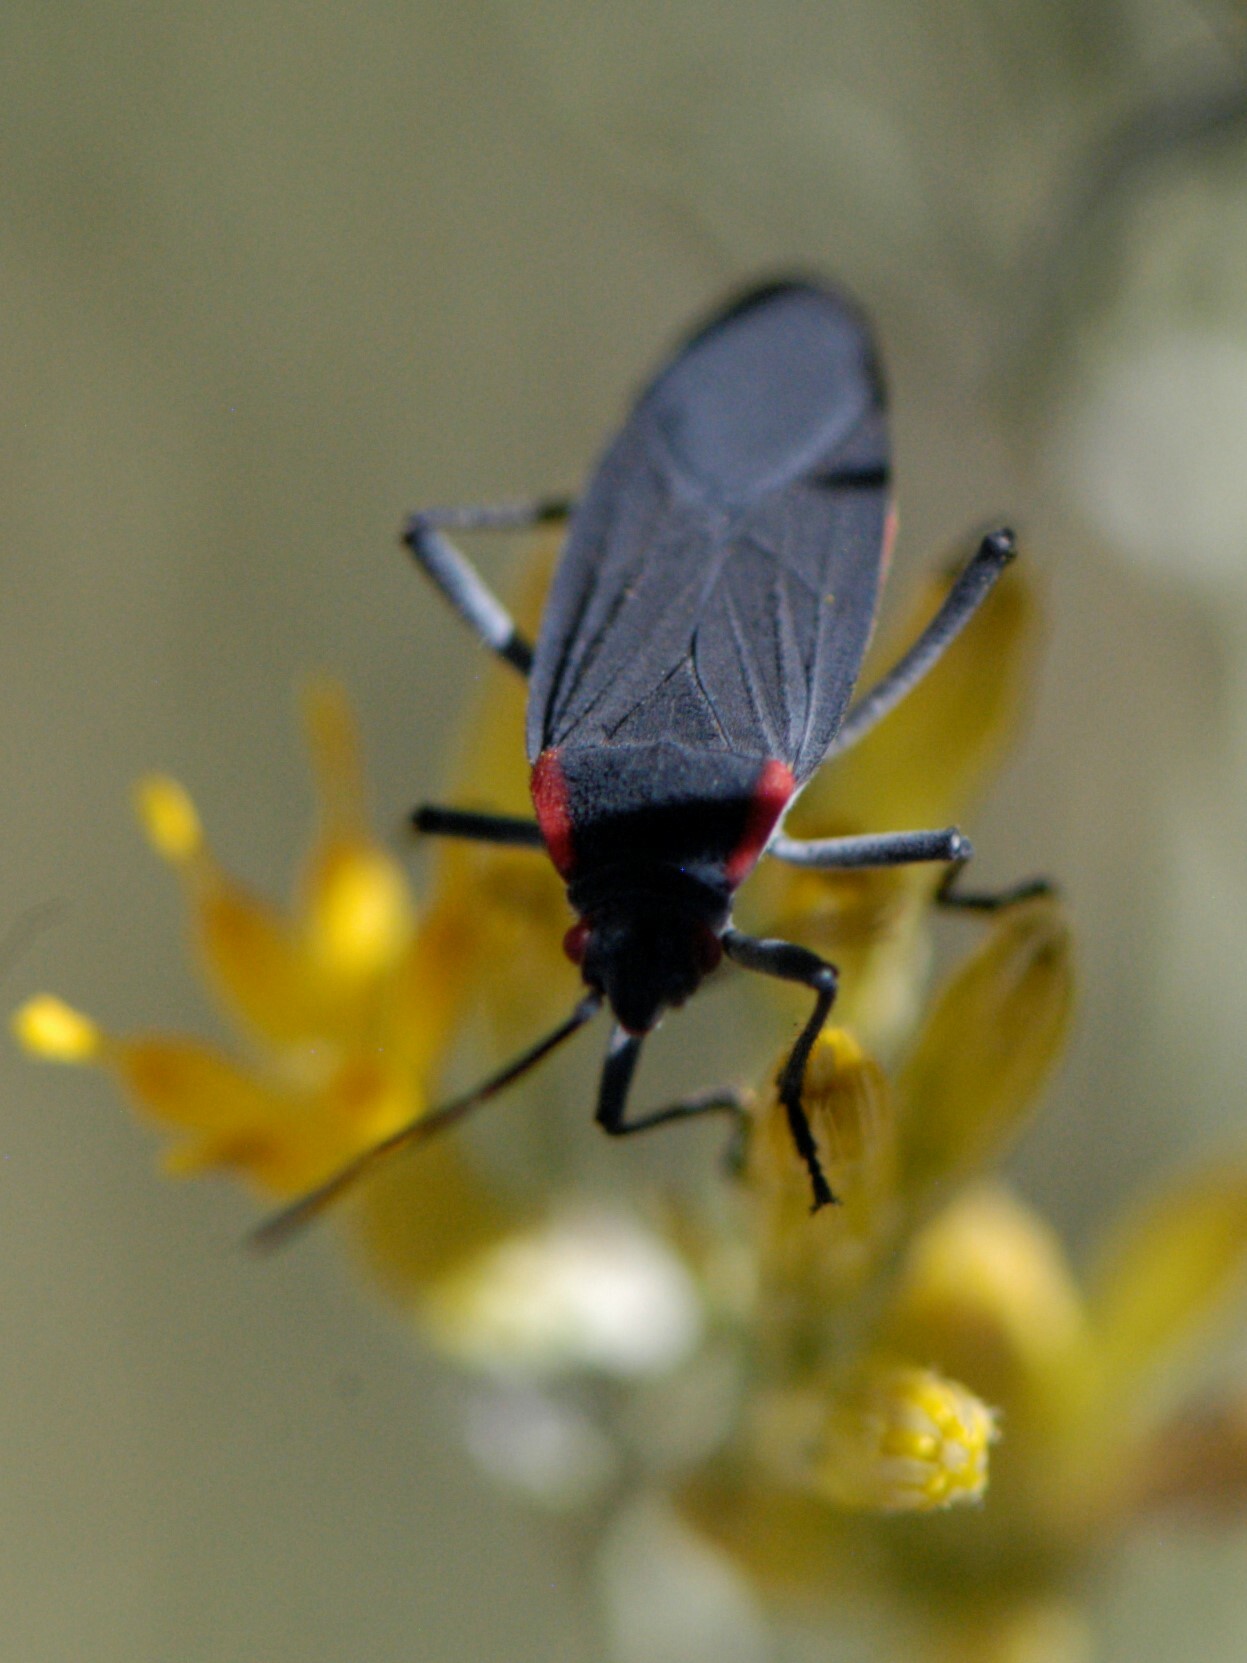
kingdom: Animalia
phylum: Arthropoda
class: Insecta
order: Hemiptera
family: Rhopalidae
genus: Jadera
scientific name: Jadera haematoloma
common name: Red-shouldered bug
